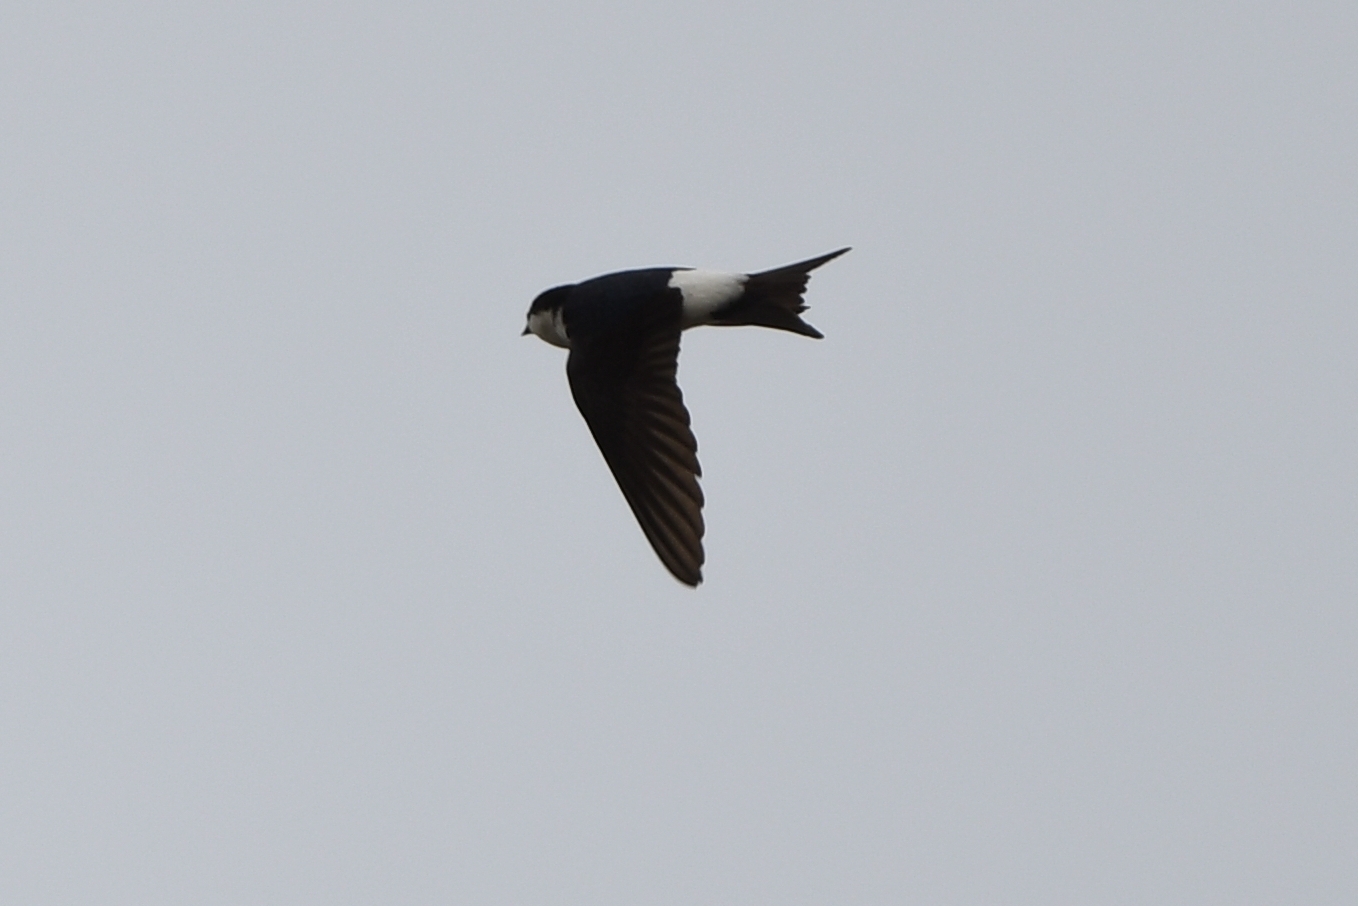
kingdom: Animalia
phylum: Chordata
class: Aves
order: Passeriformes
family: Hirundinidae
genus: Delichon
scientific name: Delichon urbicum
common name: Common house martin
